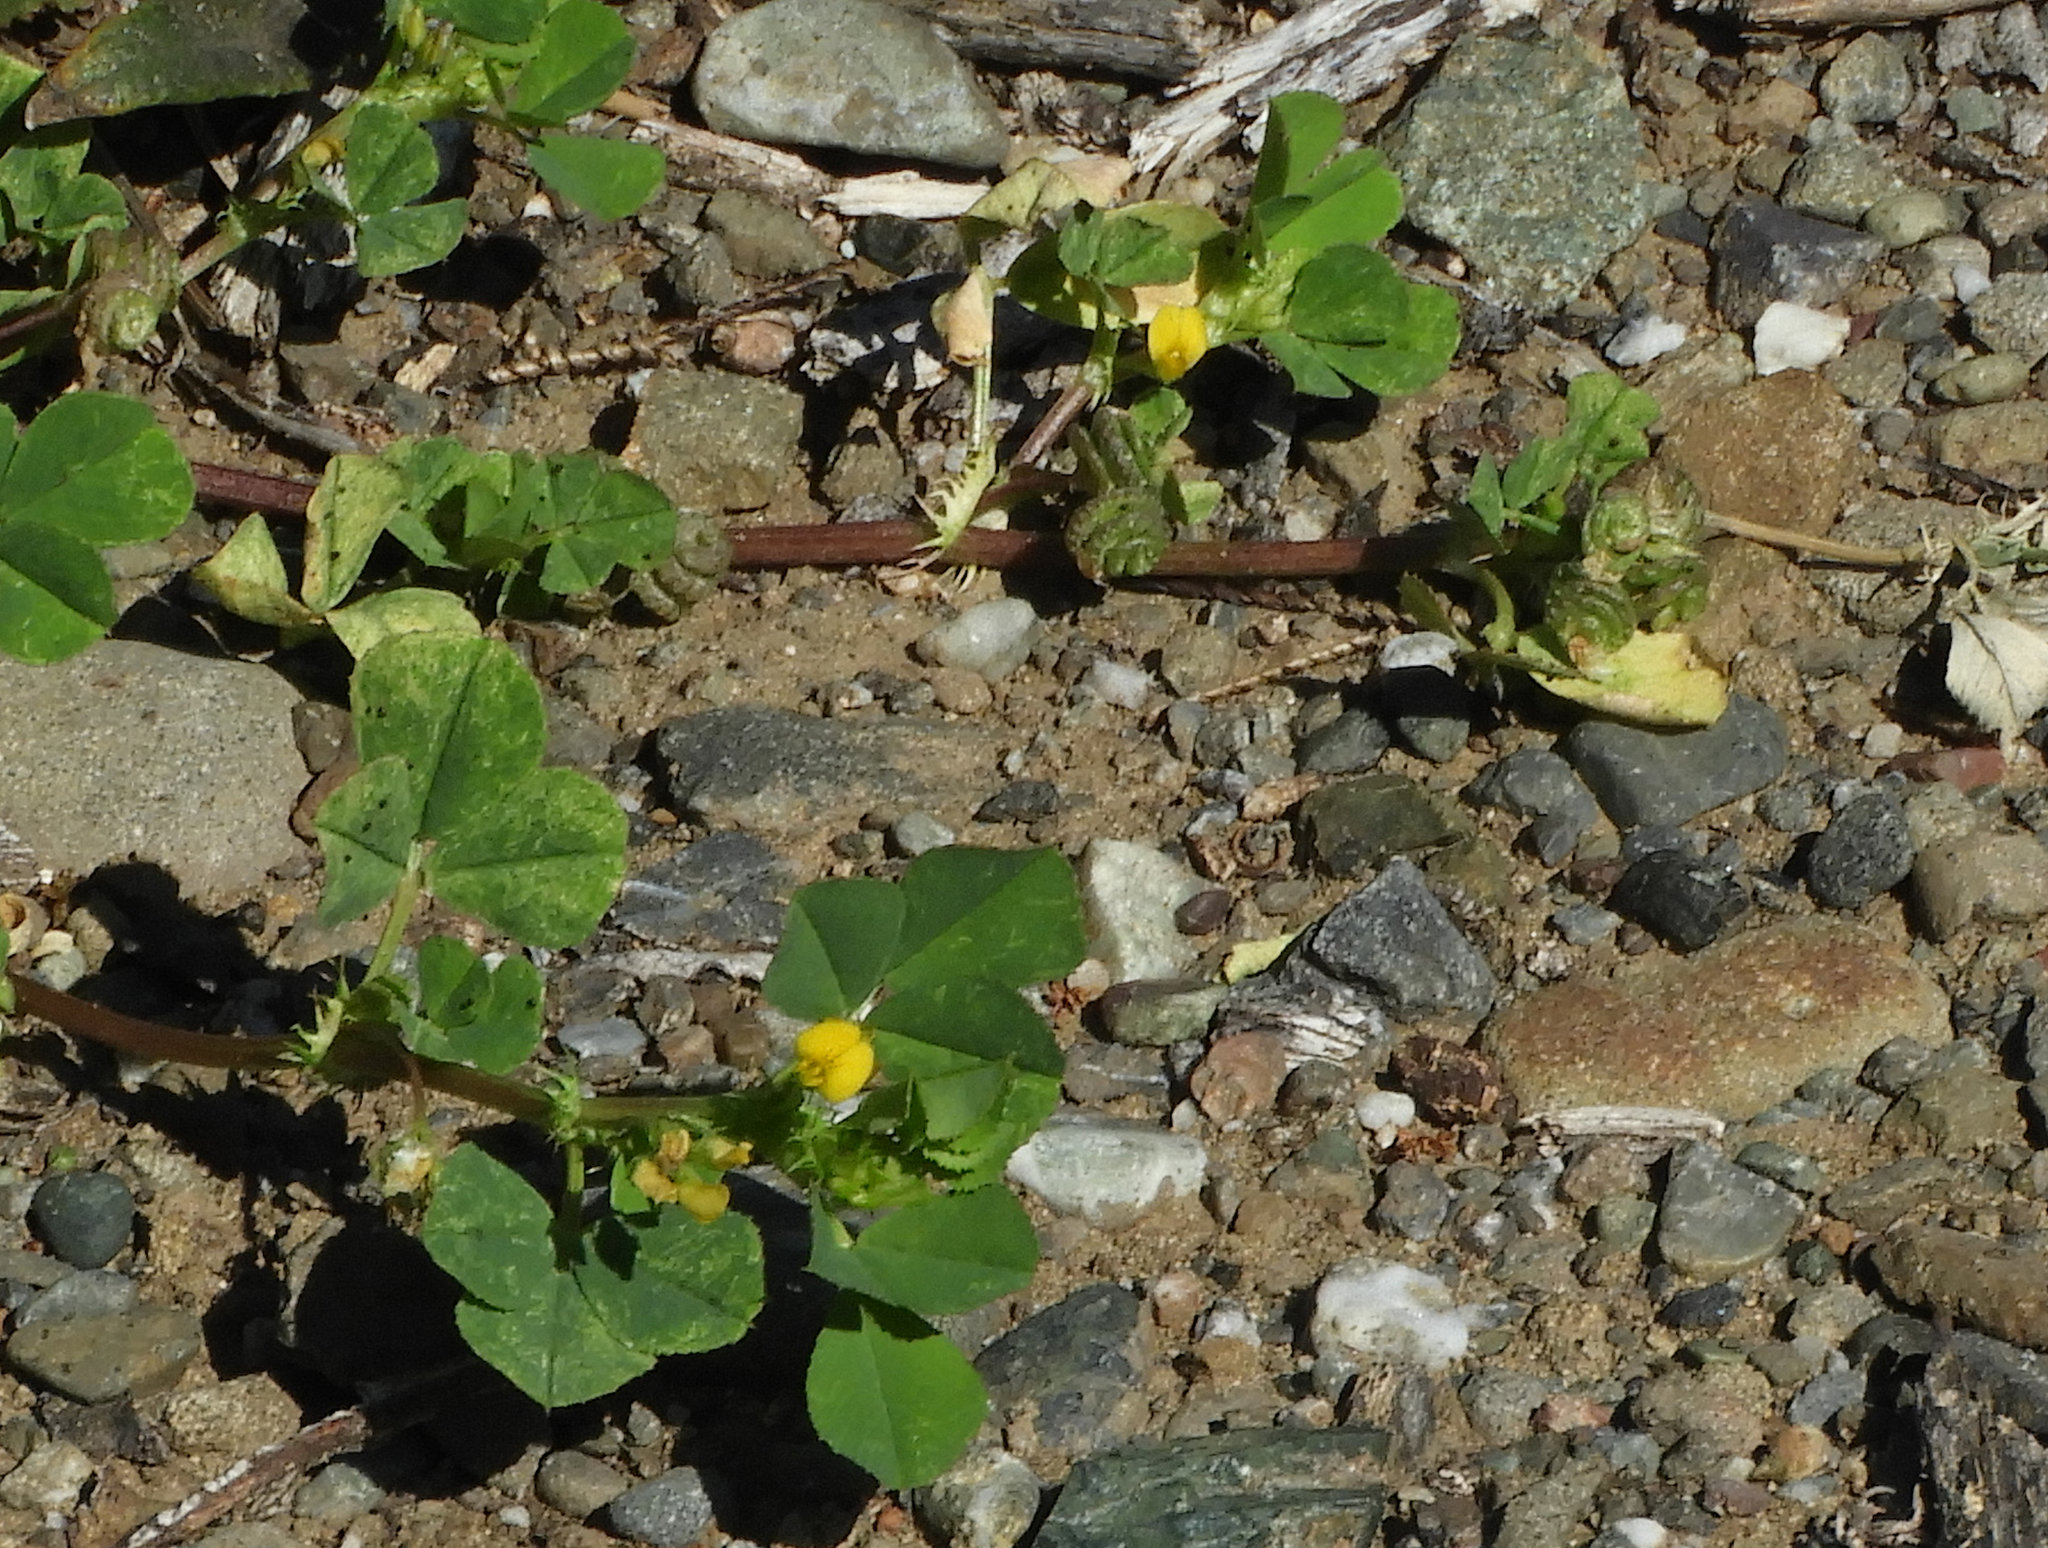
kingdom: Plantae
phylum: Tracheophyta
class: Magnoliopsida
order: Fabales
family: Fabaceae
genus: Medicago
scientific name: Medicago polymorpha
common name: Burclover
